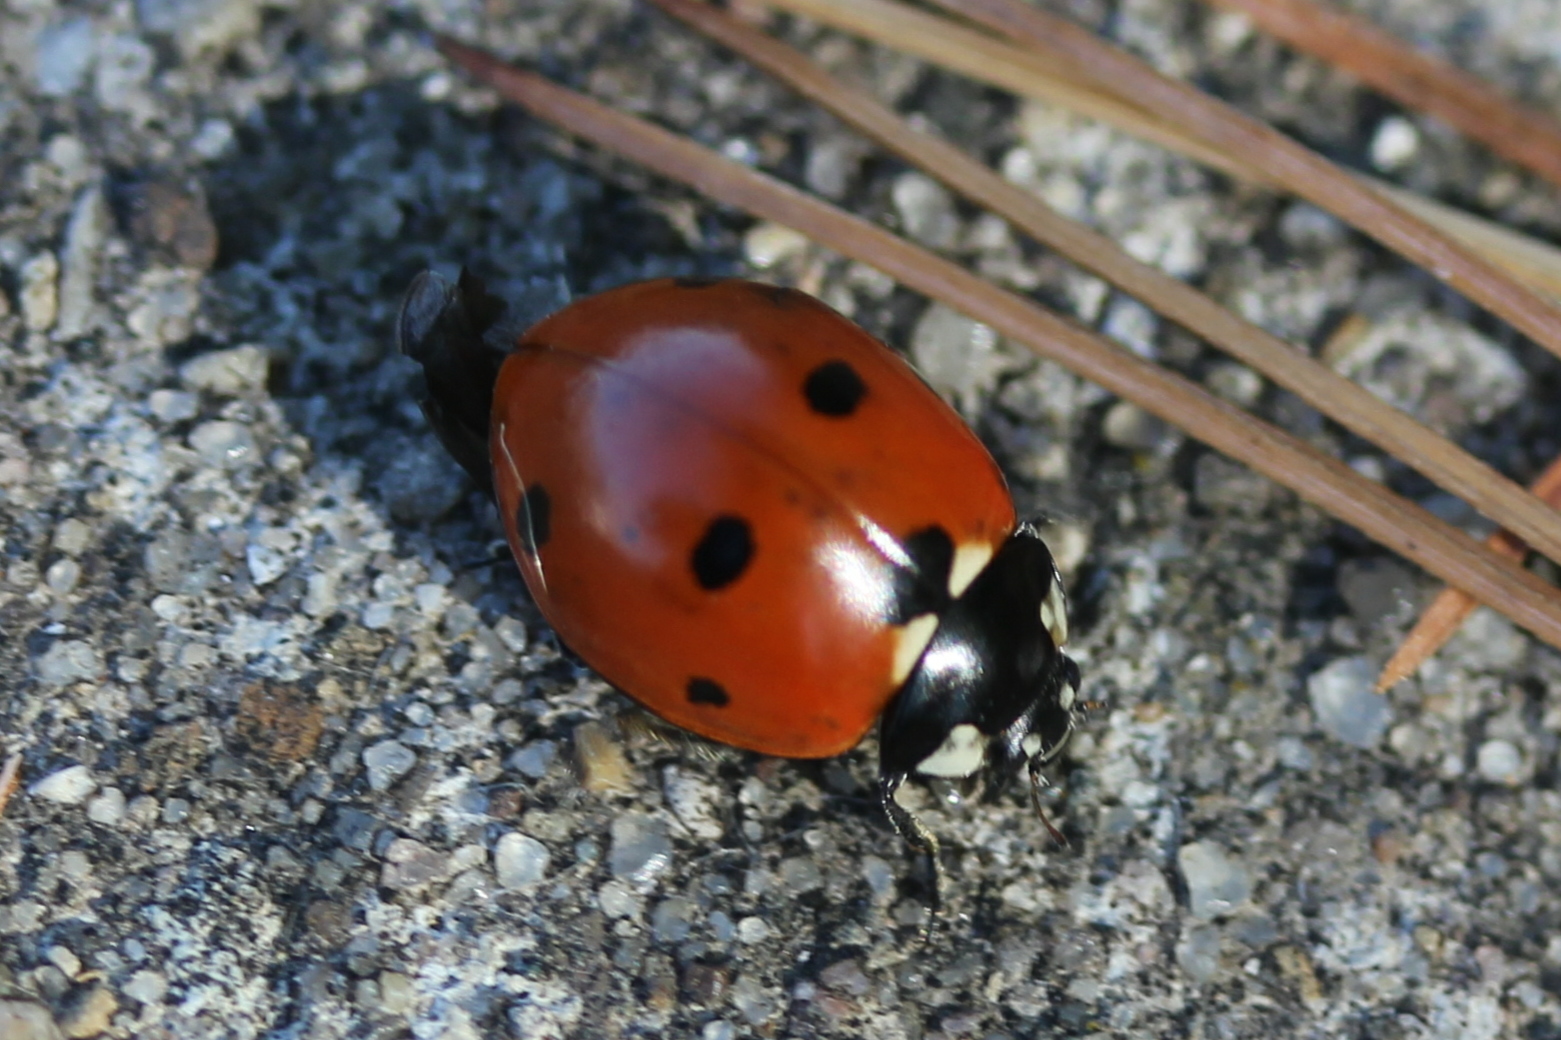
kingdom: Animalia
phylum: Arthropoda
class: Insecta
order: Coleoptera
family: Coccinellidae
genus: Coccinella
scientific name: Coccinella septempunctata
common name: Sevenspotted lady beetle
